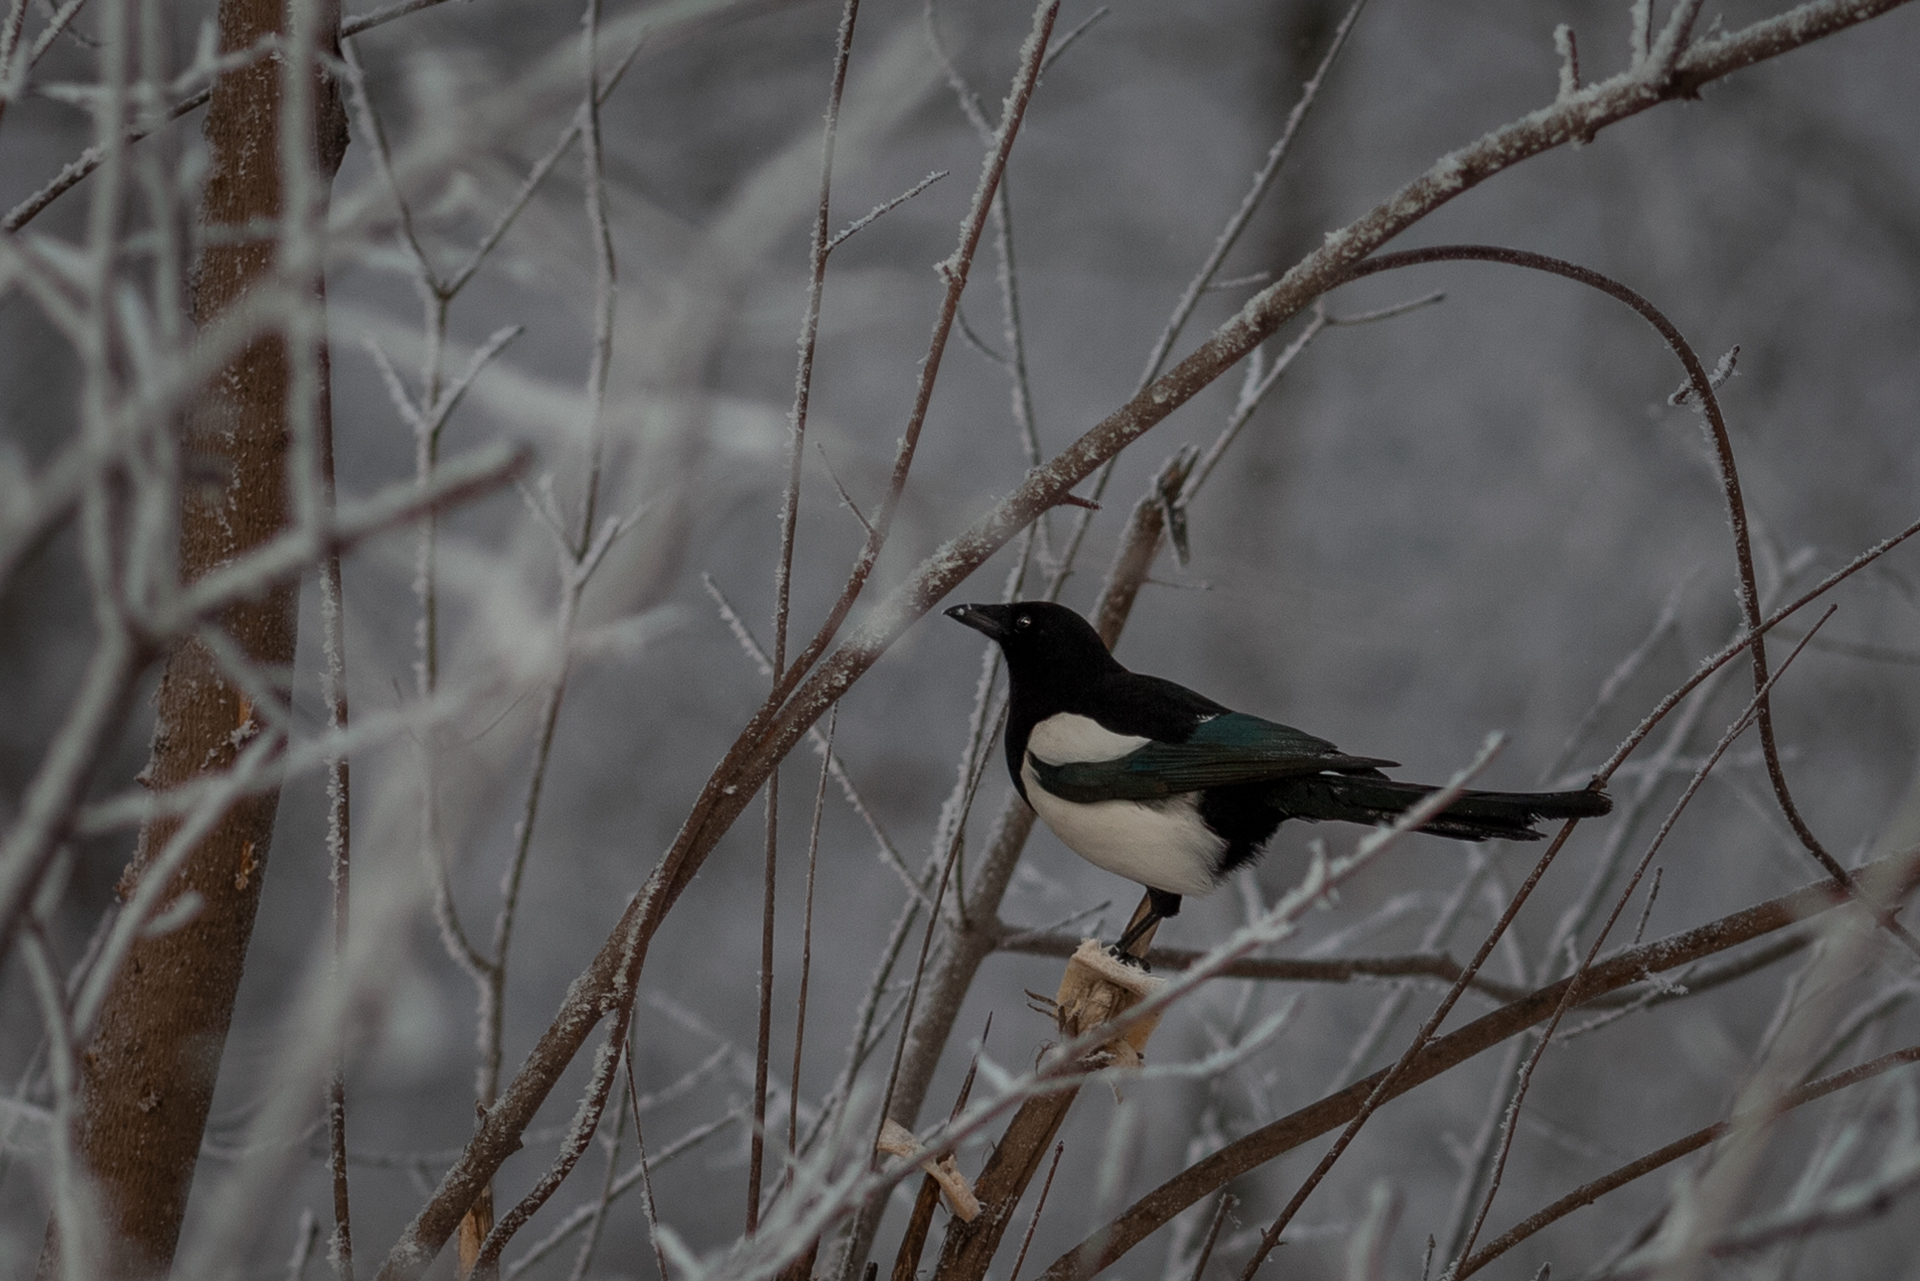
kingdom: Animalia
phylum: Chordata
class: Aves
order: Passeriformes
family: Corvidae
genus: Pica
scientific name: Pica pica
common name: Eurasian magpie
